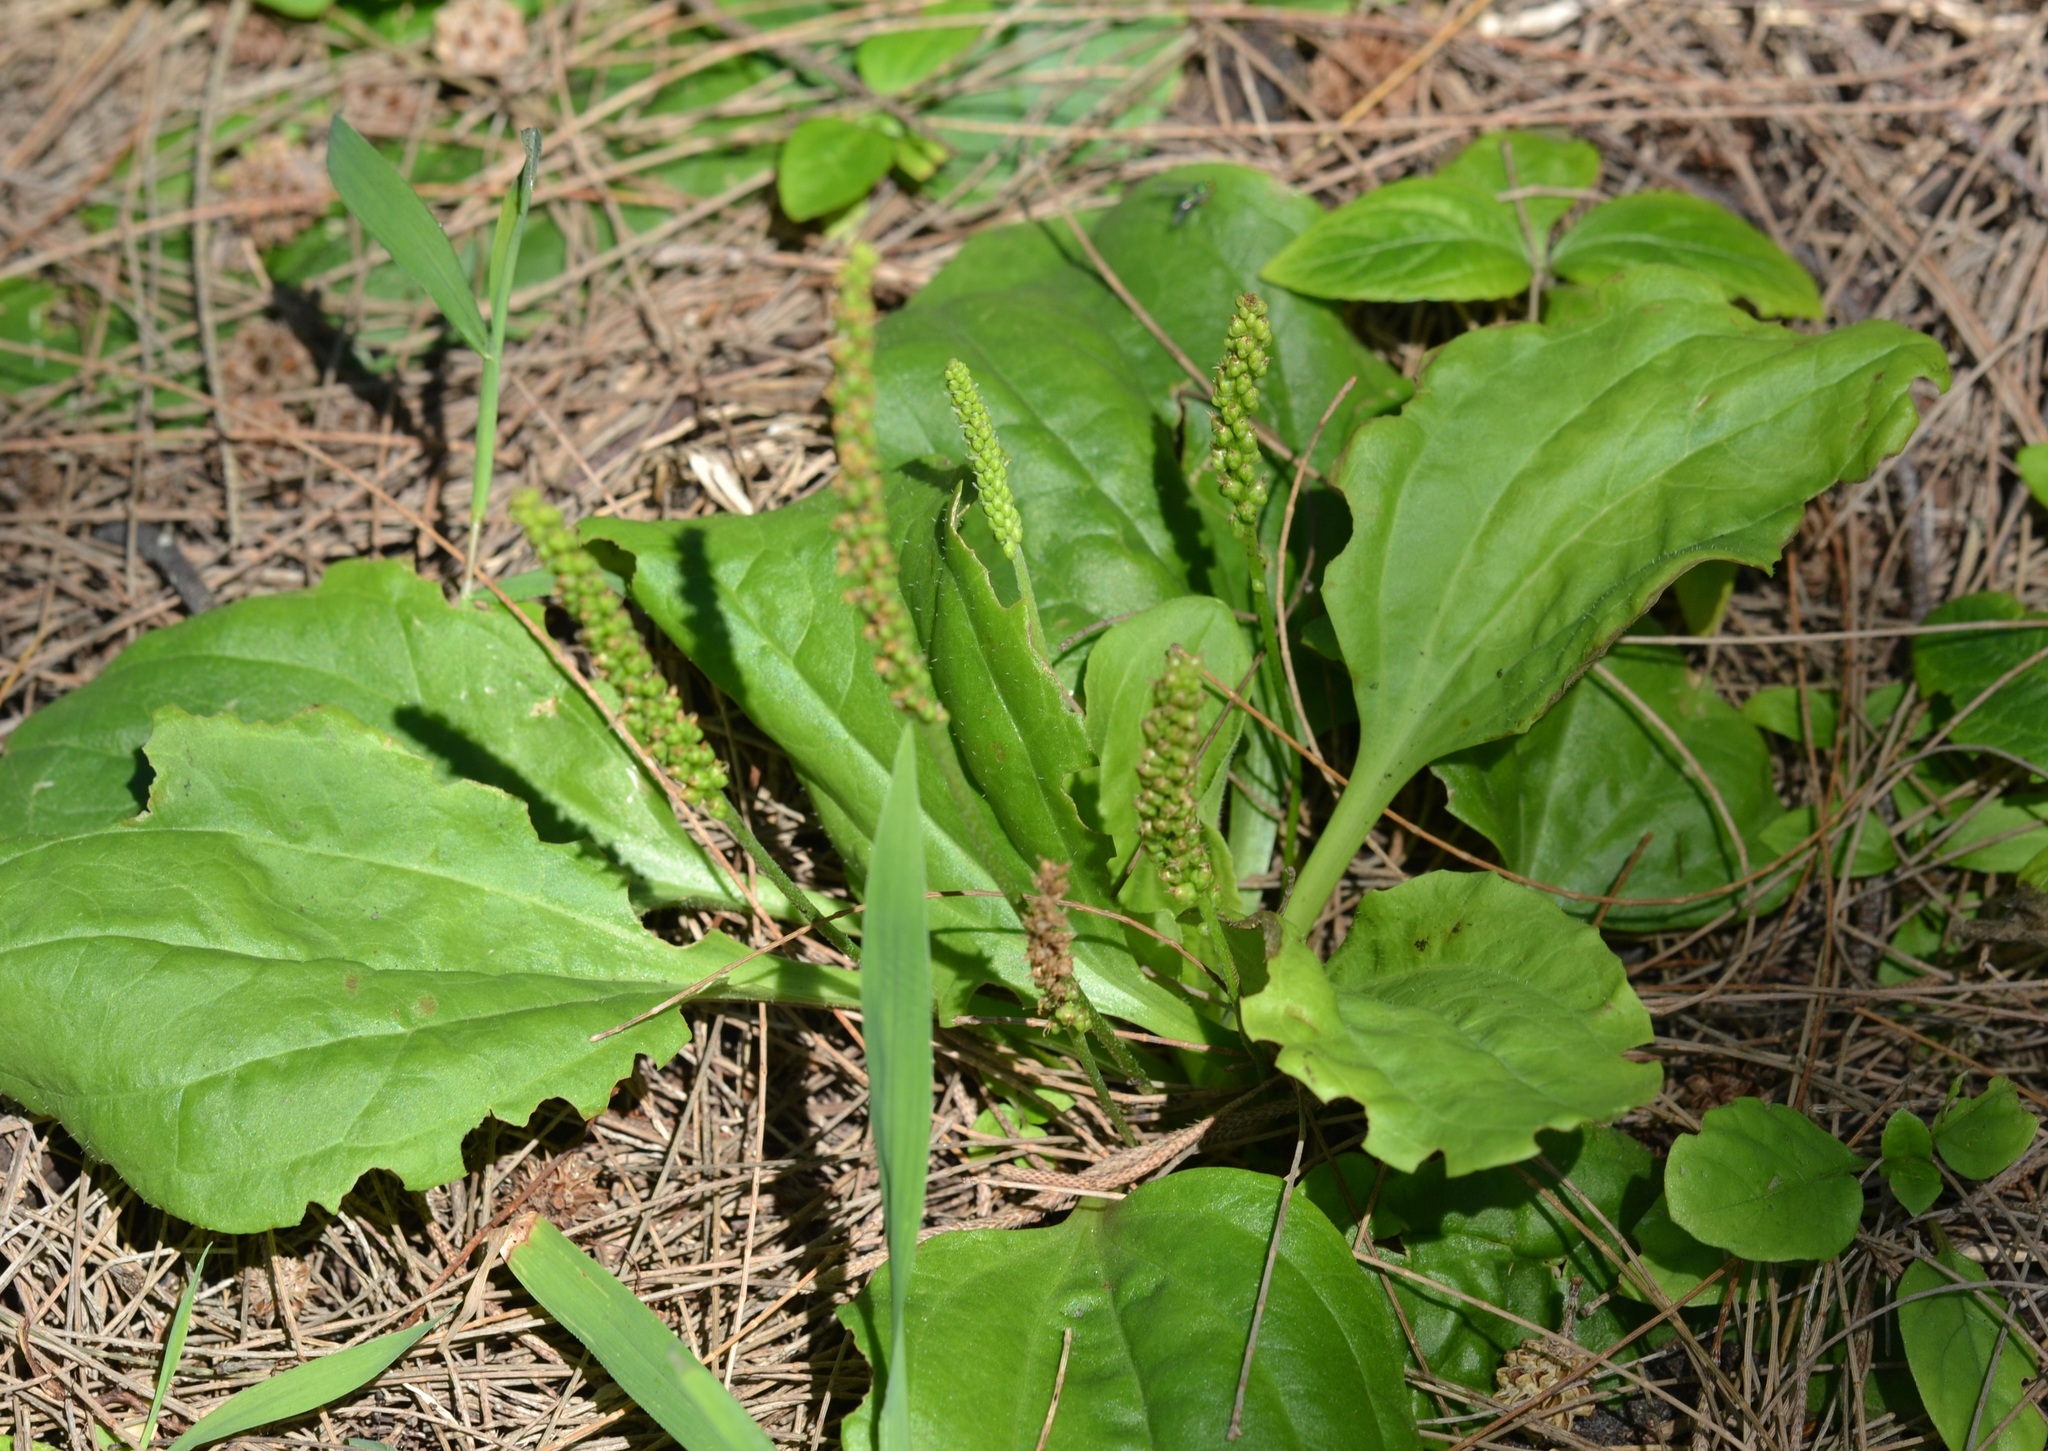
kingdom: Plantae
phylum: Tracheophyta
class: Magnoliopsida
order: Lamiales
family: Plantaginaceae
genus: Plantago
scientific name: Plantago major
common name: Common plantain
